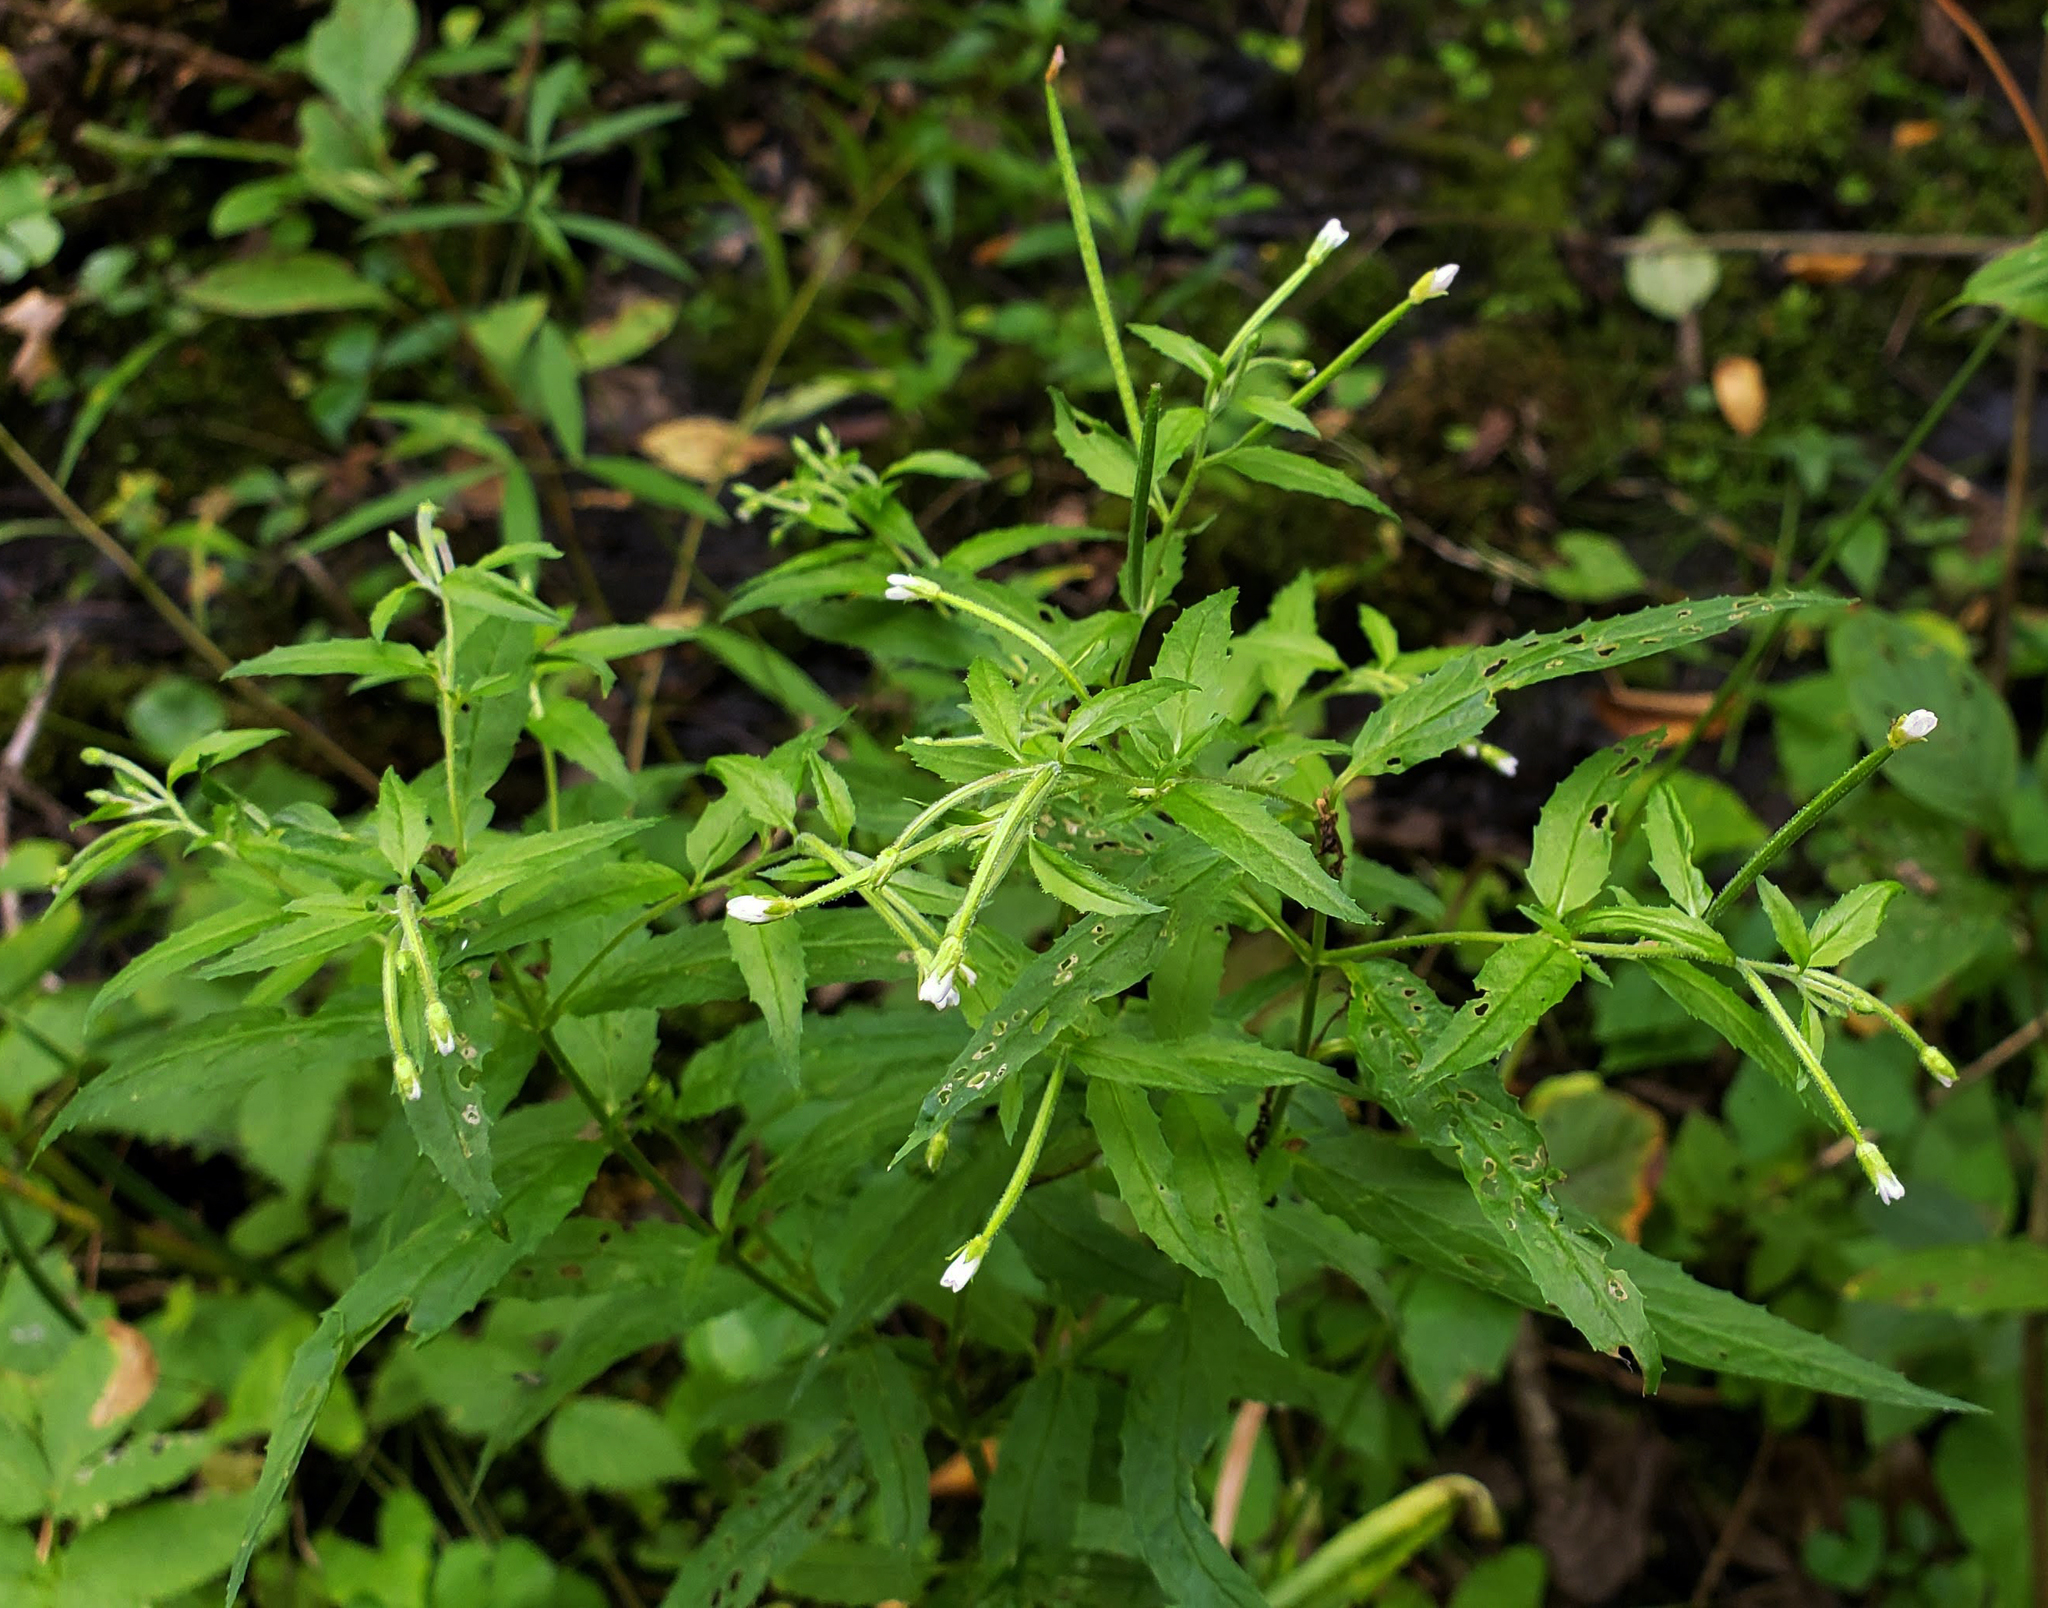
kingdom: Plantae
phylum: Tracheophyta
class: Magnoliopsida
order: Myrtales
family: Onagraceae
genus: Epilobium
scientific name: Epilobium coloratum
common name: Bronze willowherb
